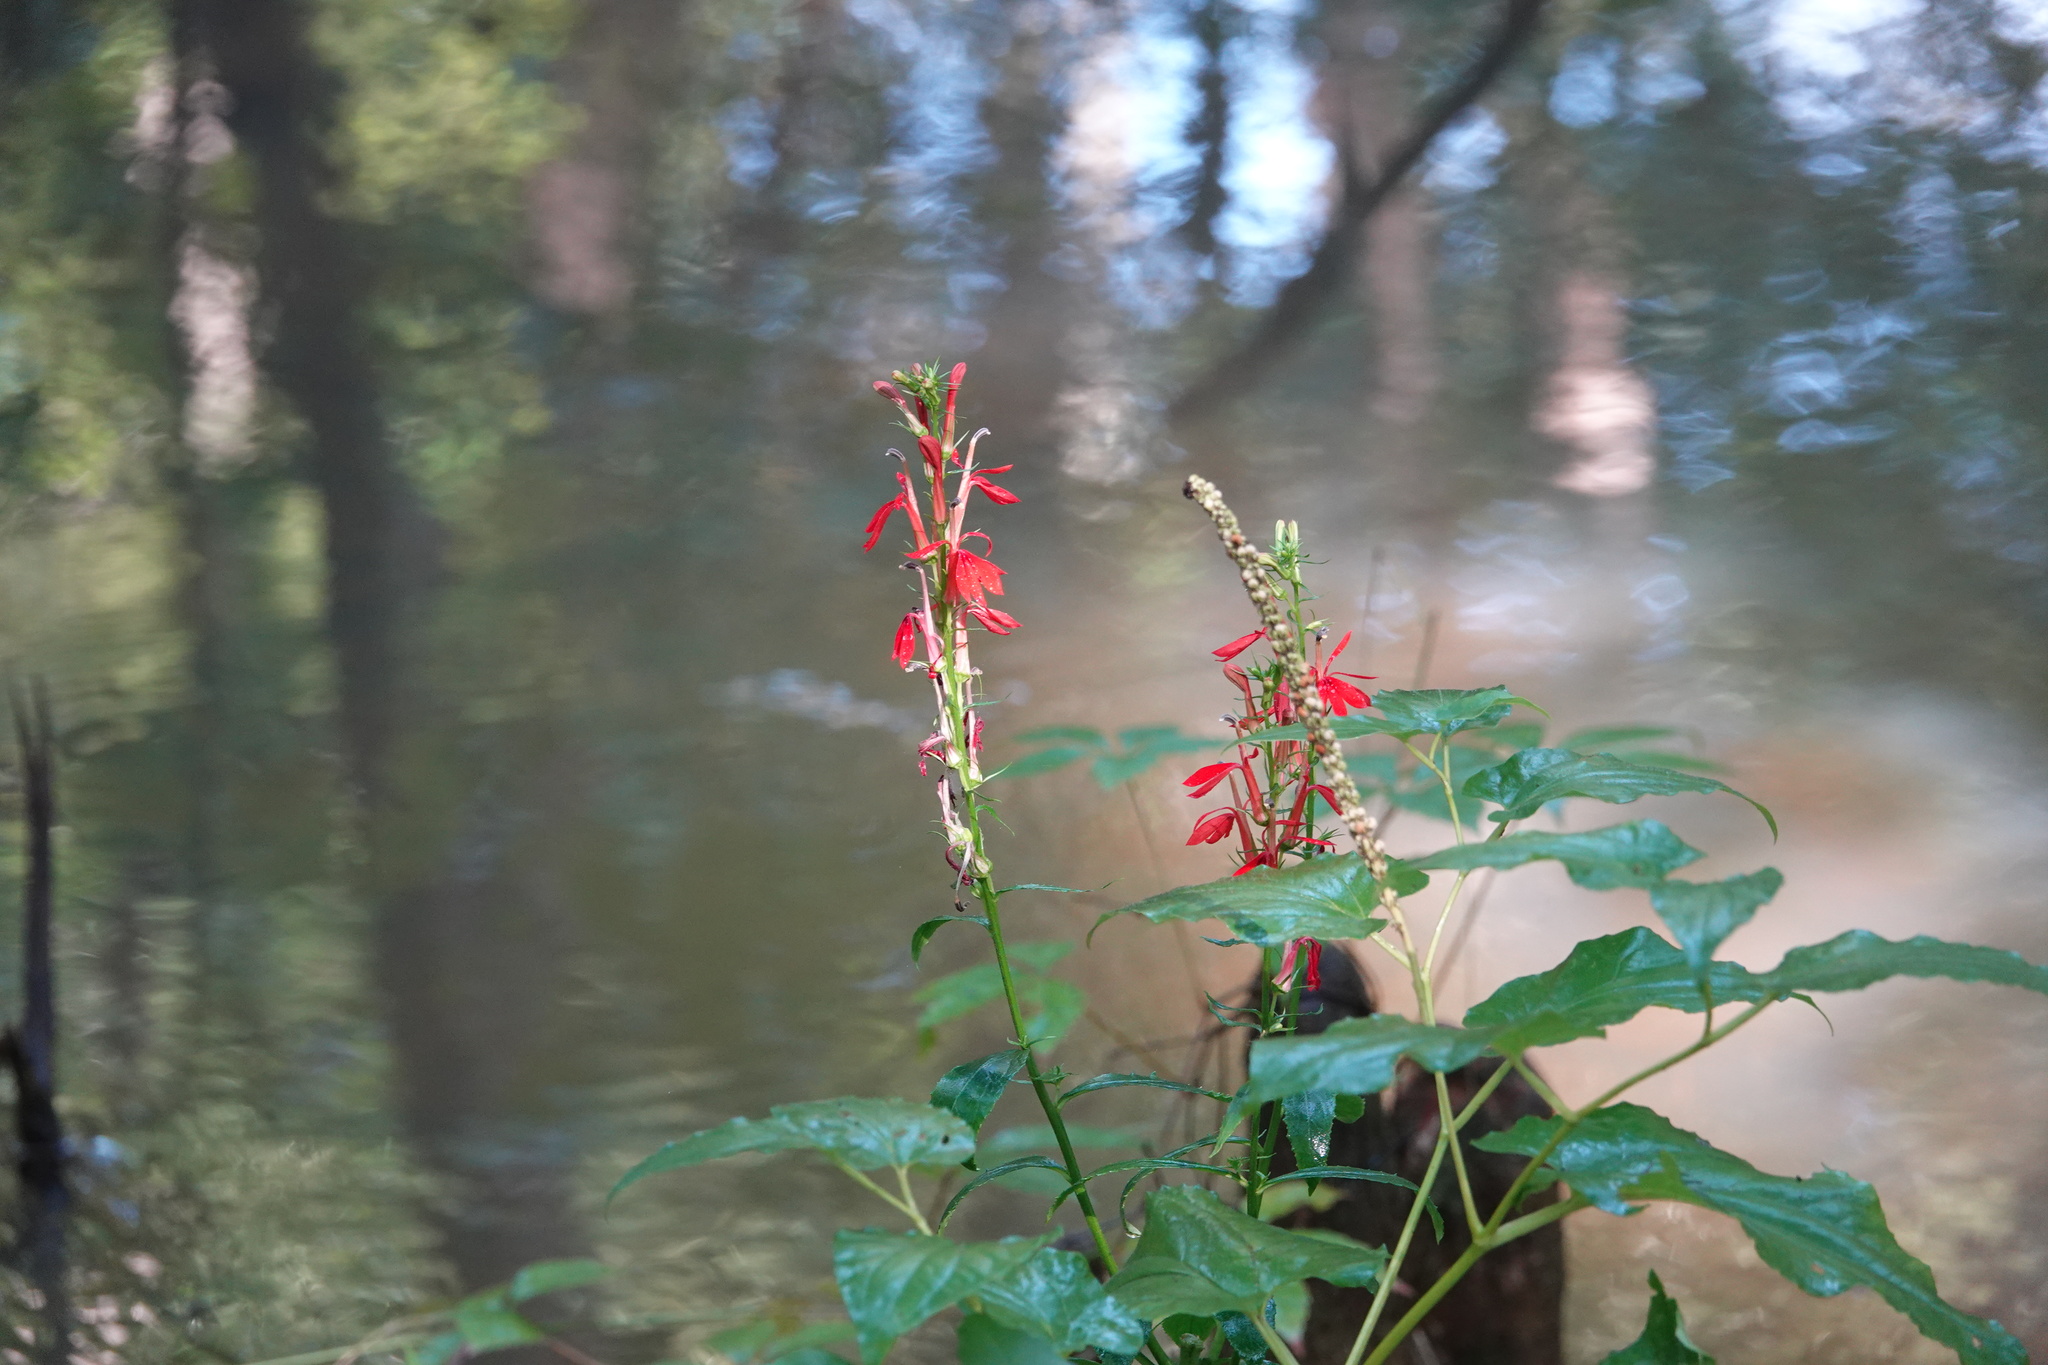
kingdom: Plantae
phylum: Tracheophyta
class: Magnoliopsida
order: Asterales
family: Campanulaceae
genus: Lobelia
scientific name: Lobelia cardinalis
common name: Cardinal flower
